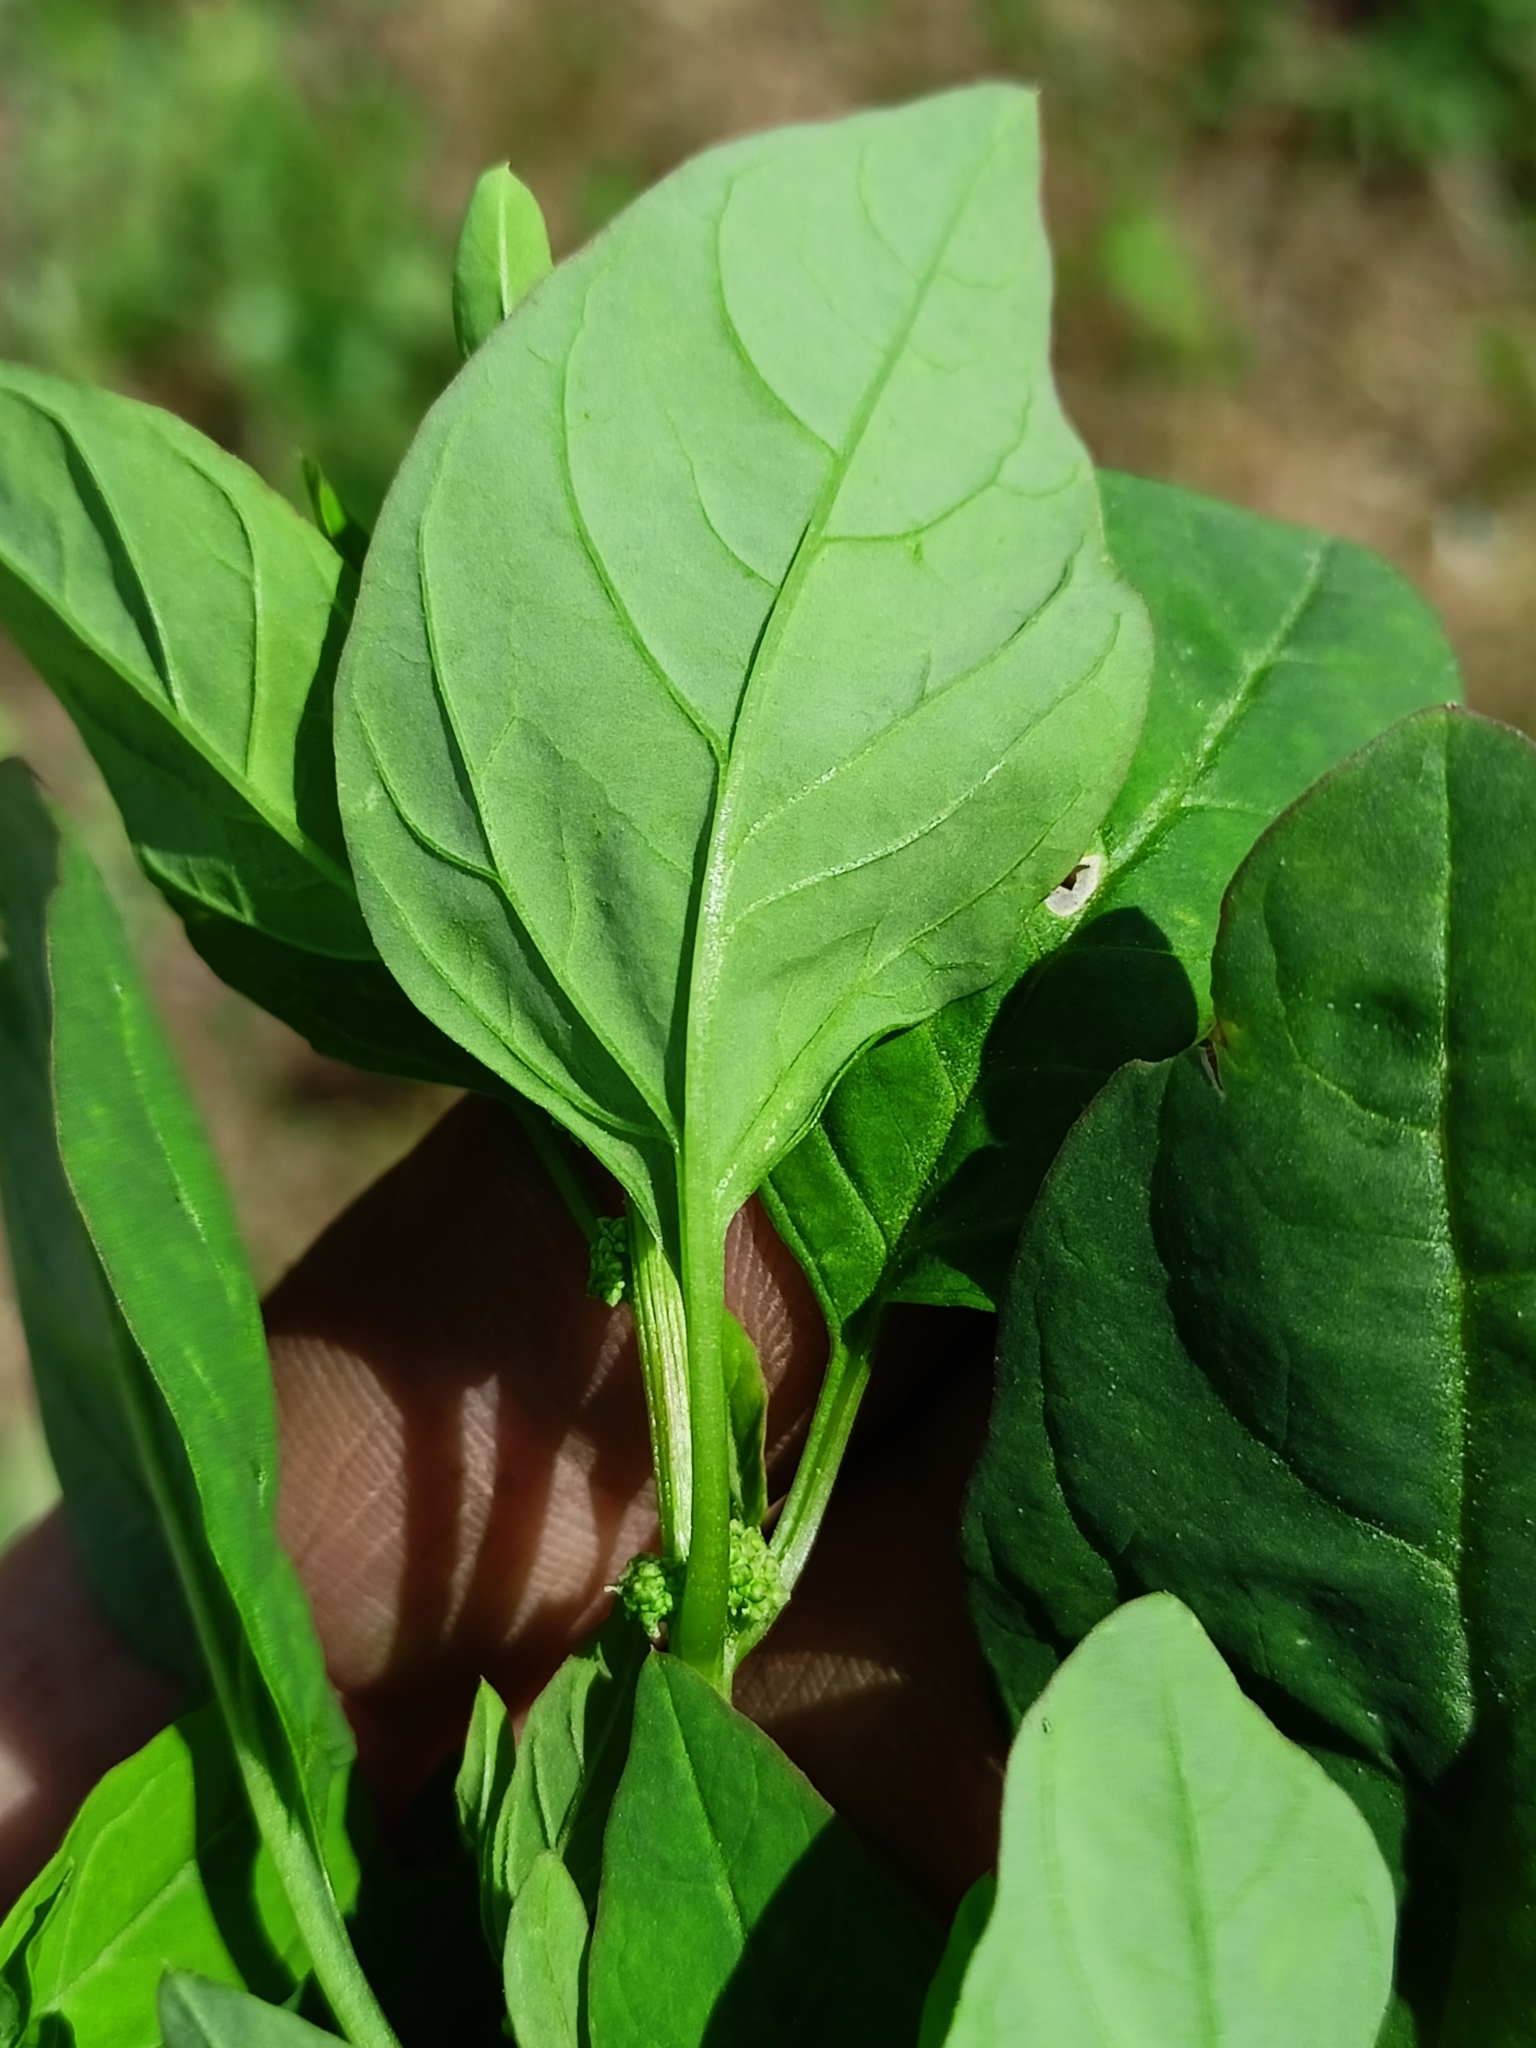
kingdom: Plantae
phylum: Tracheophyta
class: Magnoliopsida
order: Caryophyllales
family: Amaranthaceae
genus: Lipandra
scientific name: Lipandra polysperma
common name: Many-seed goosefoot
